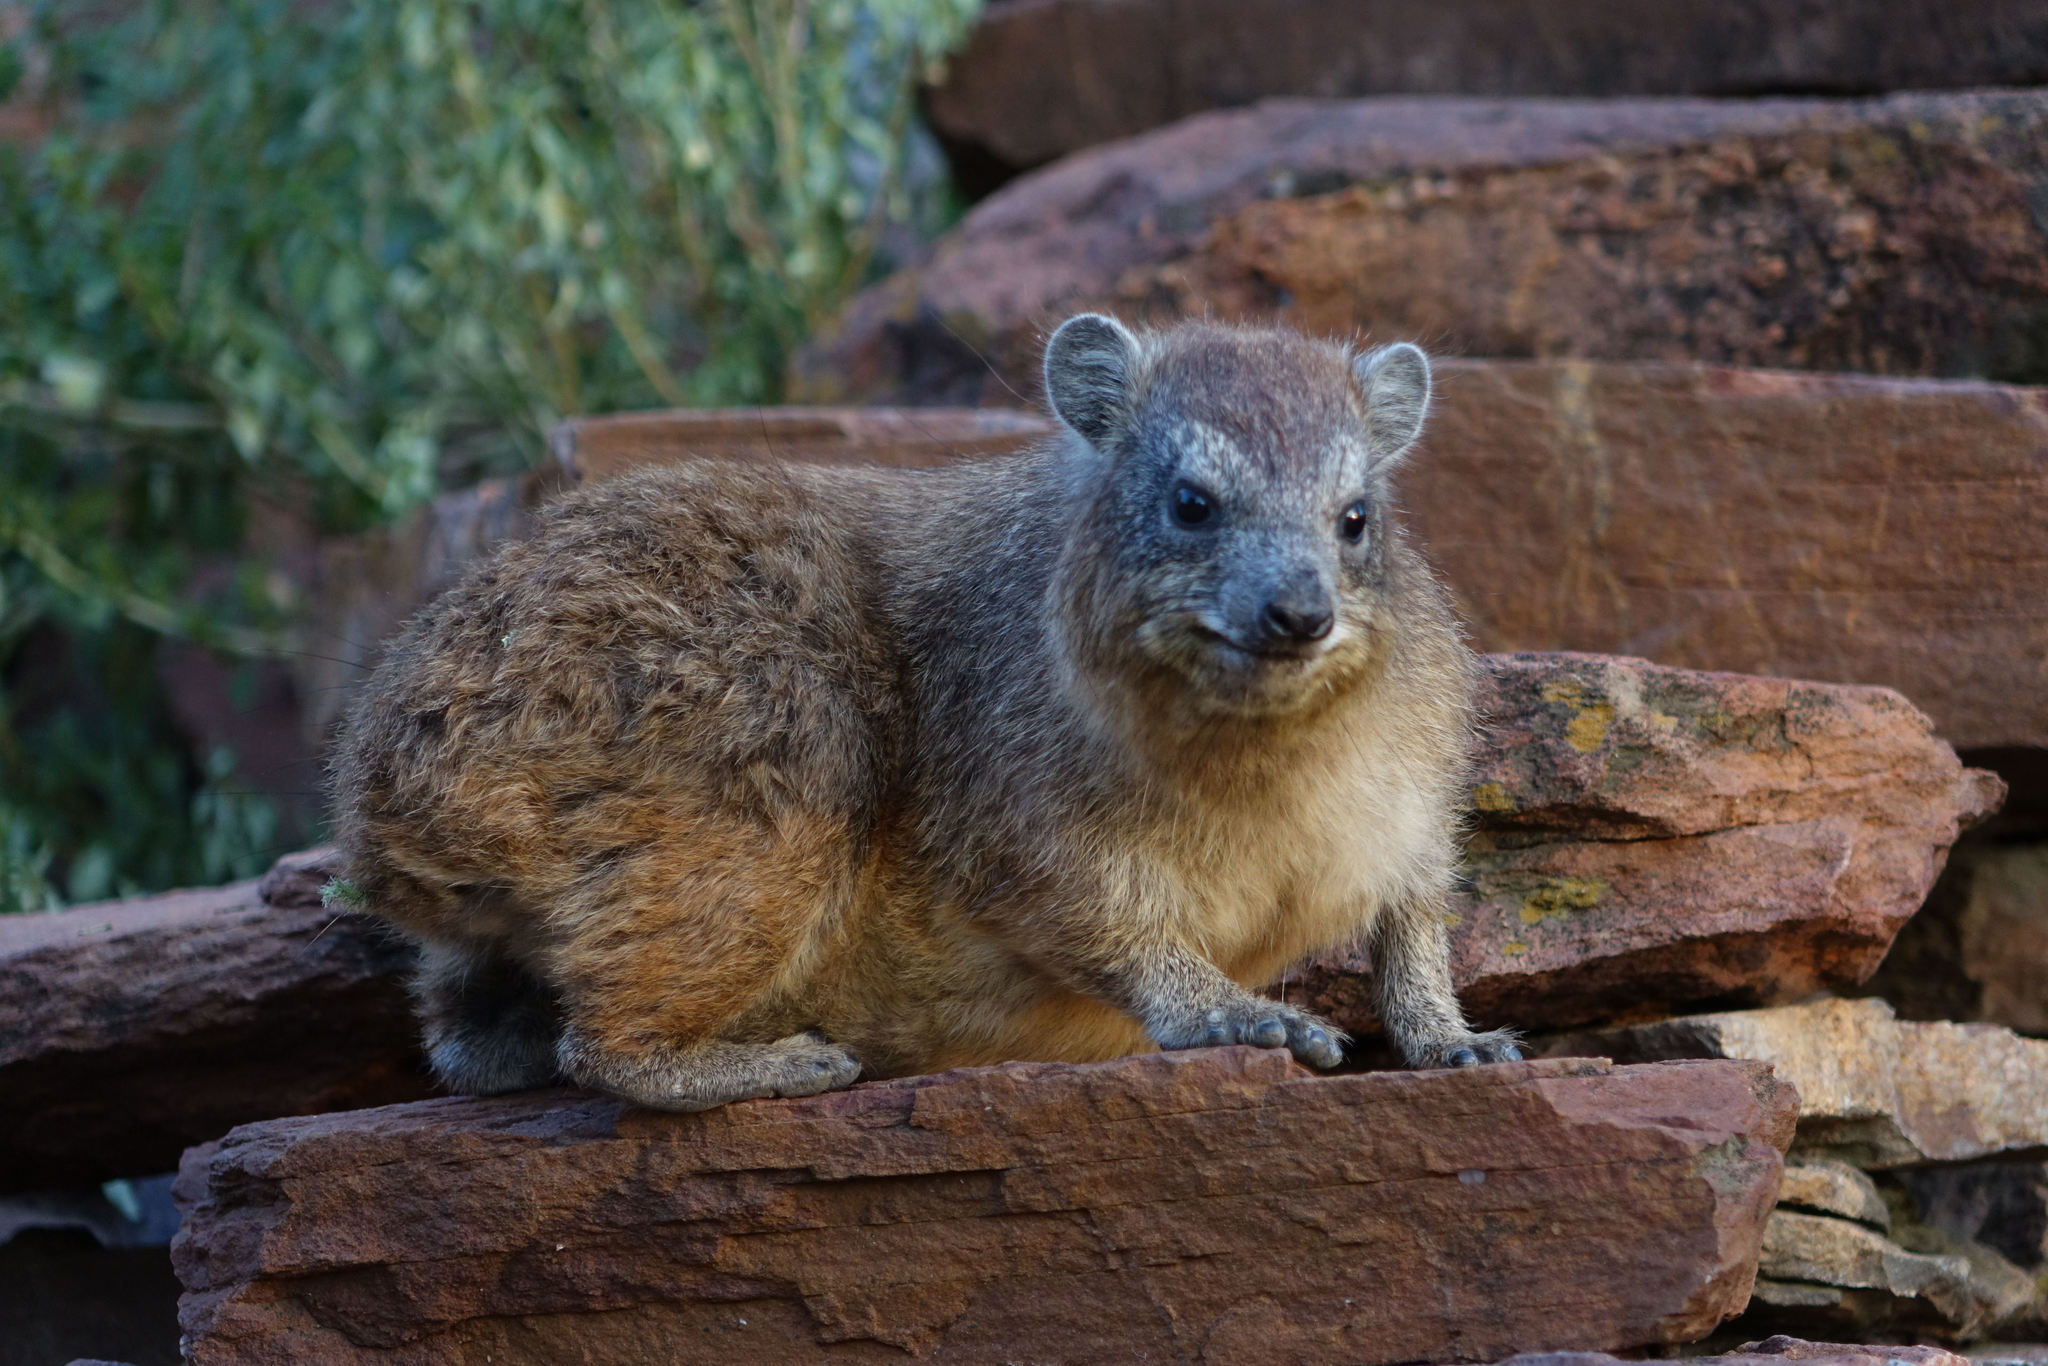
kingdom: Animalia
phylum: Chordata
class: Mammalia
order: Hyracoidea
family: Procaviidae
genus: Procavia
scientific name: Procavia capensis
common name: Rock hyrax
